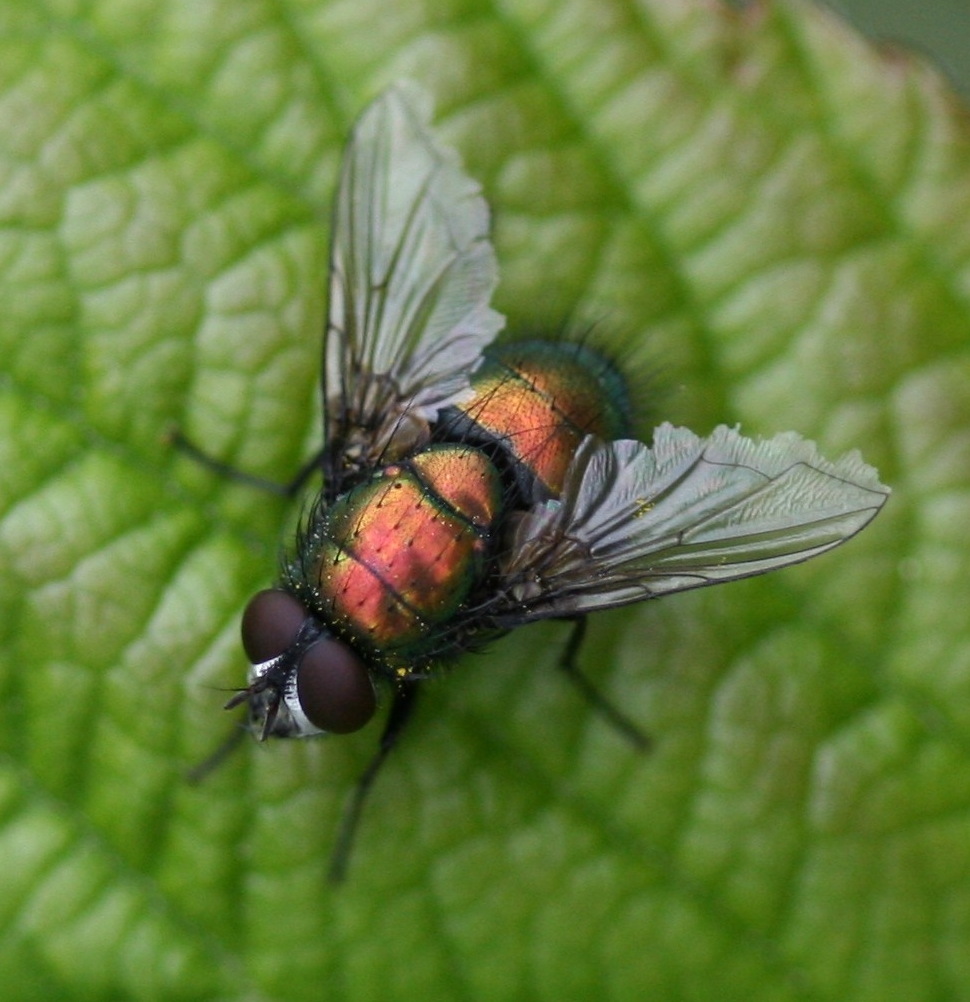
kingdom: Animalia
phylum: Arthropoda
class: Insecta
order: Diptera
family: Calliphoridae
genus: Lucilia
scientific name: Lucilia silvarum
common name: Marsh greenbottle
